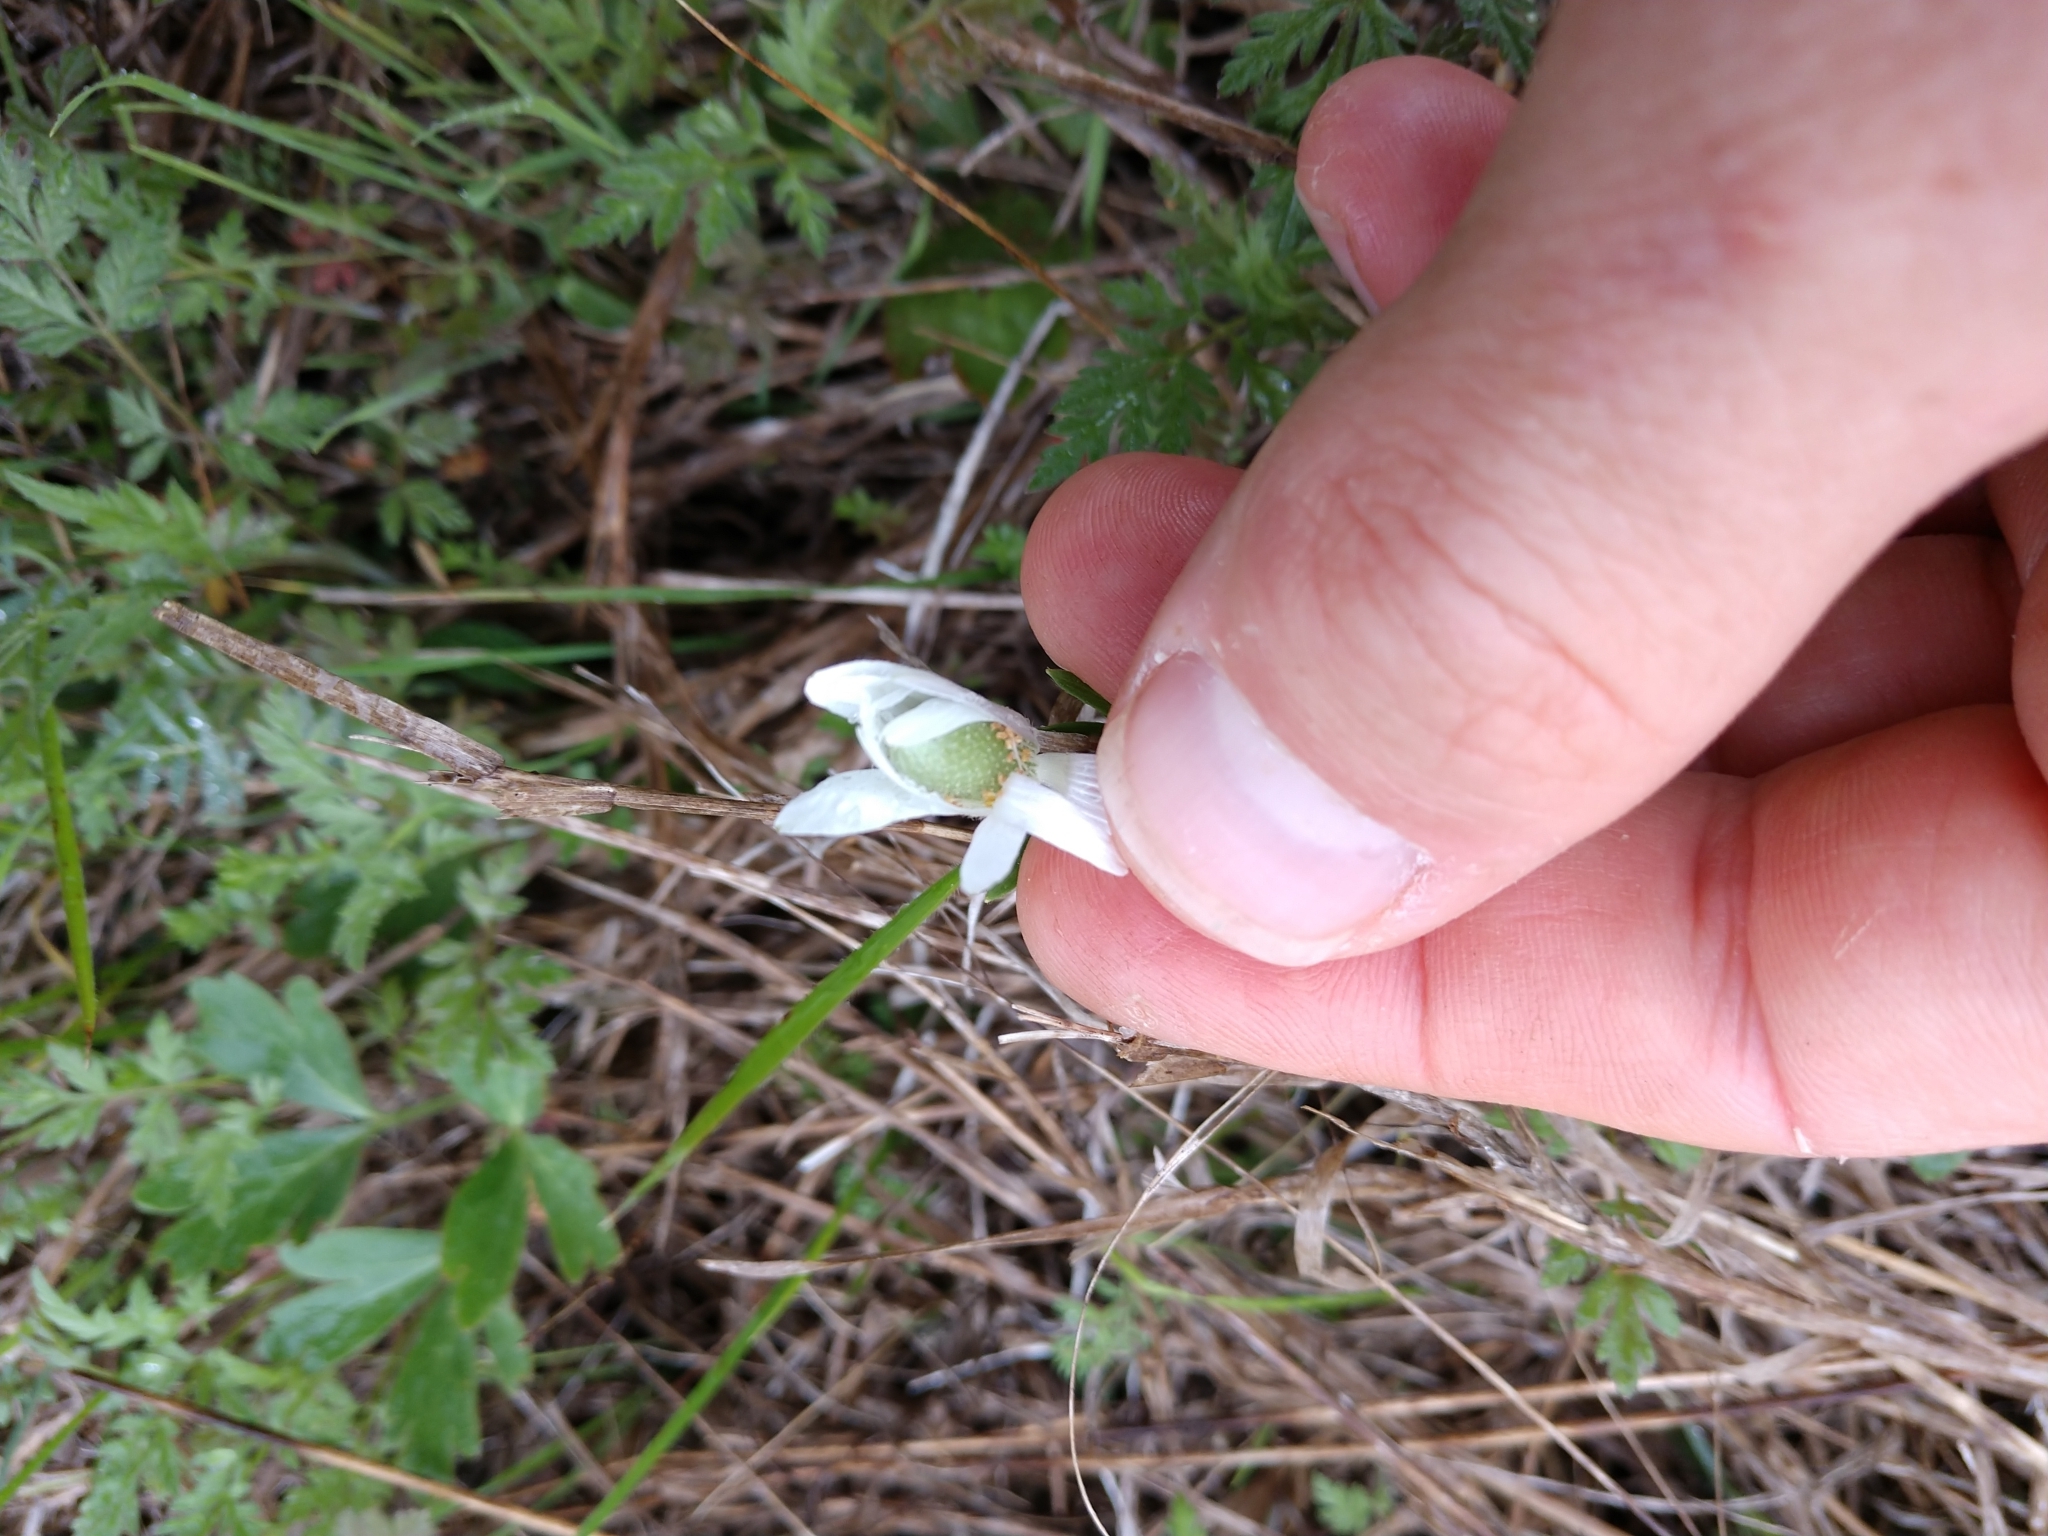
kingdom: Plantae
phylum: Tracheophyta
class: Magnoliopsida
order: Ranunculales
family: Ranunculaceae
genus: Anemone
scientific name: Anemone berlandieri
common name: Ten-petal anemone
